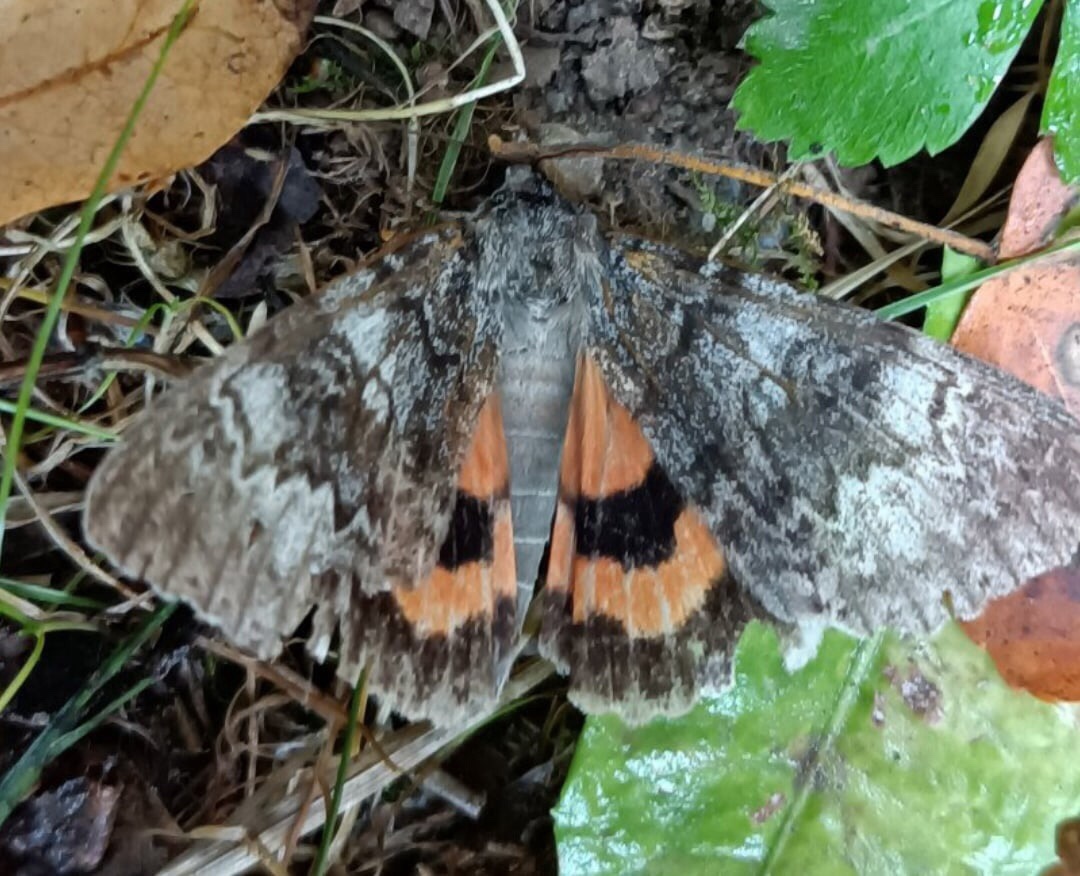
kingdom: Animalia
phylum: Arthropoda
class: Insecta
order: Lepidoptera
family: Erebidae
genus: Catocala
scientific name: Catocala adultera
